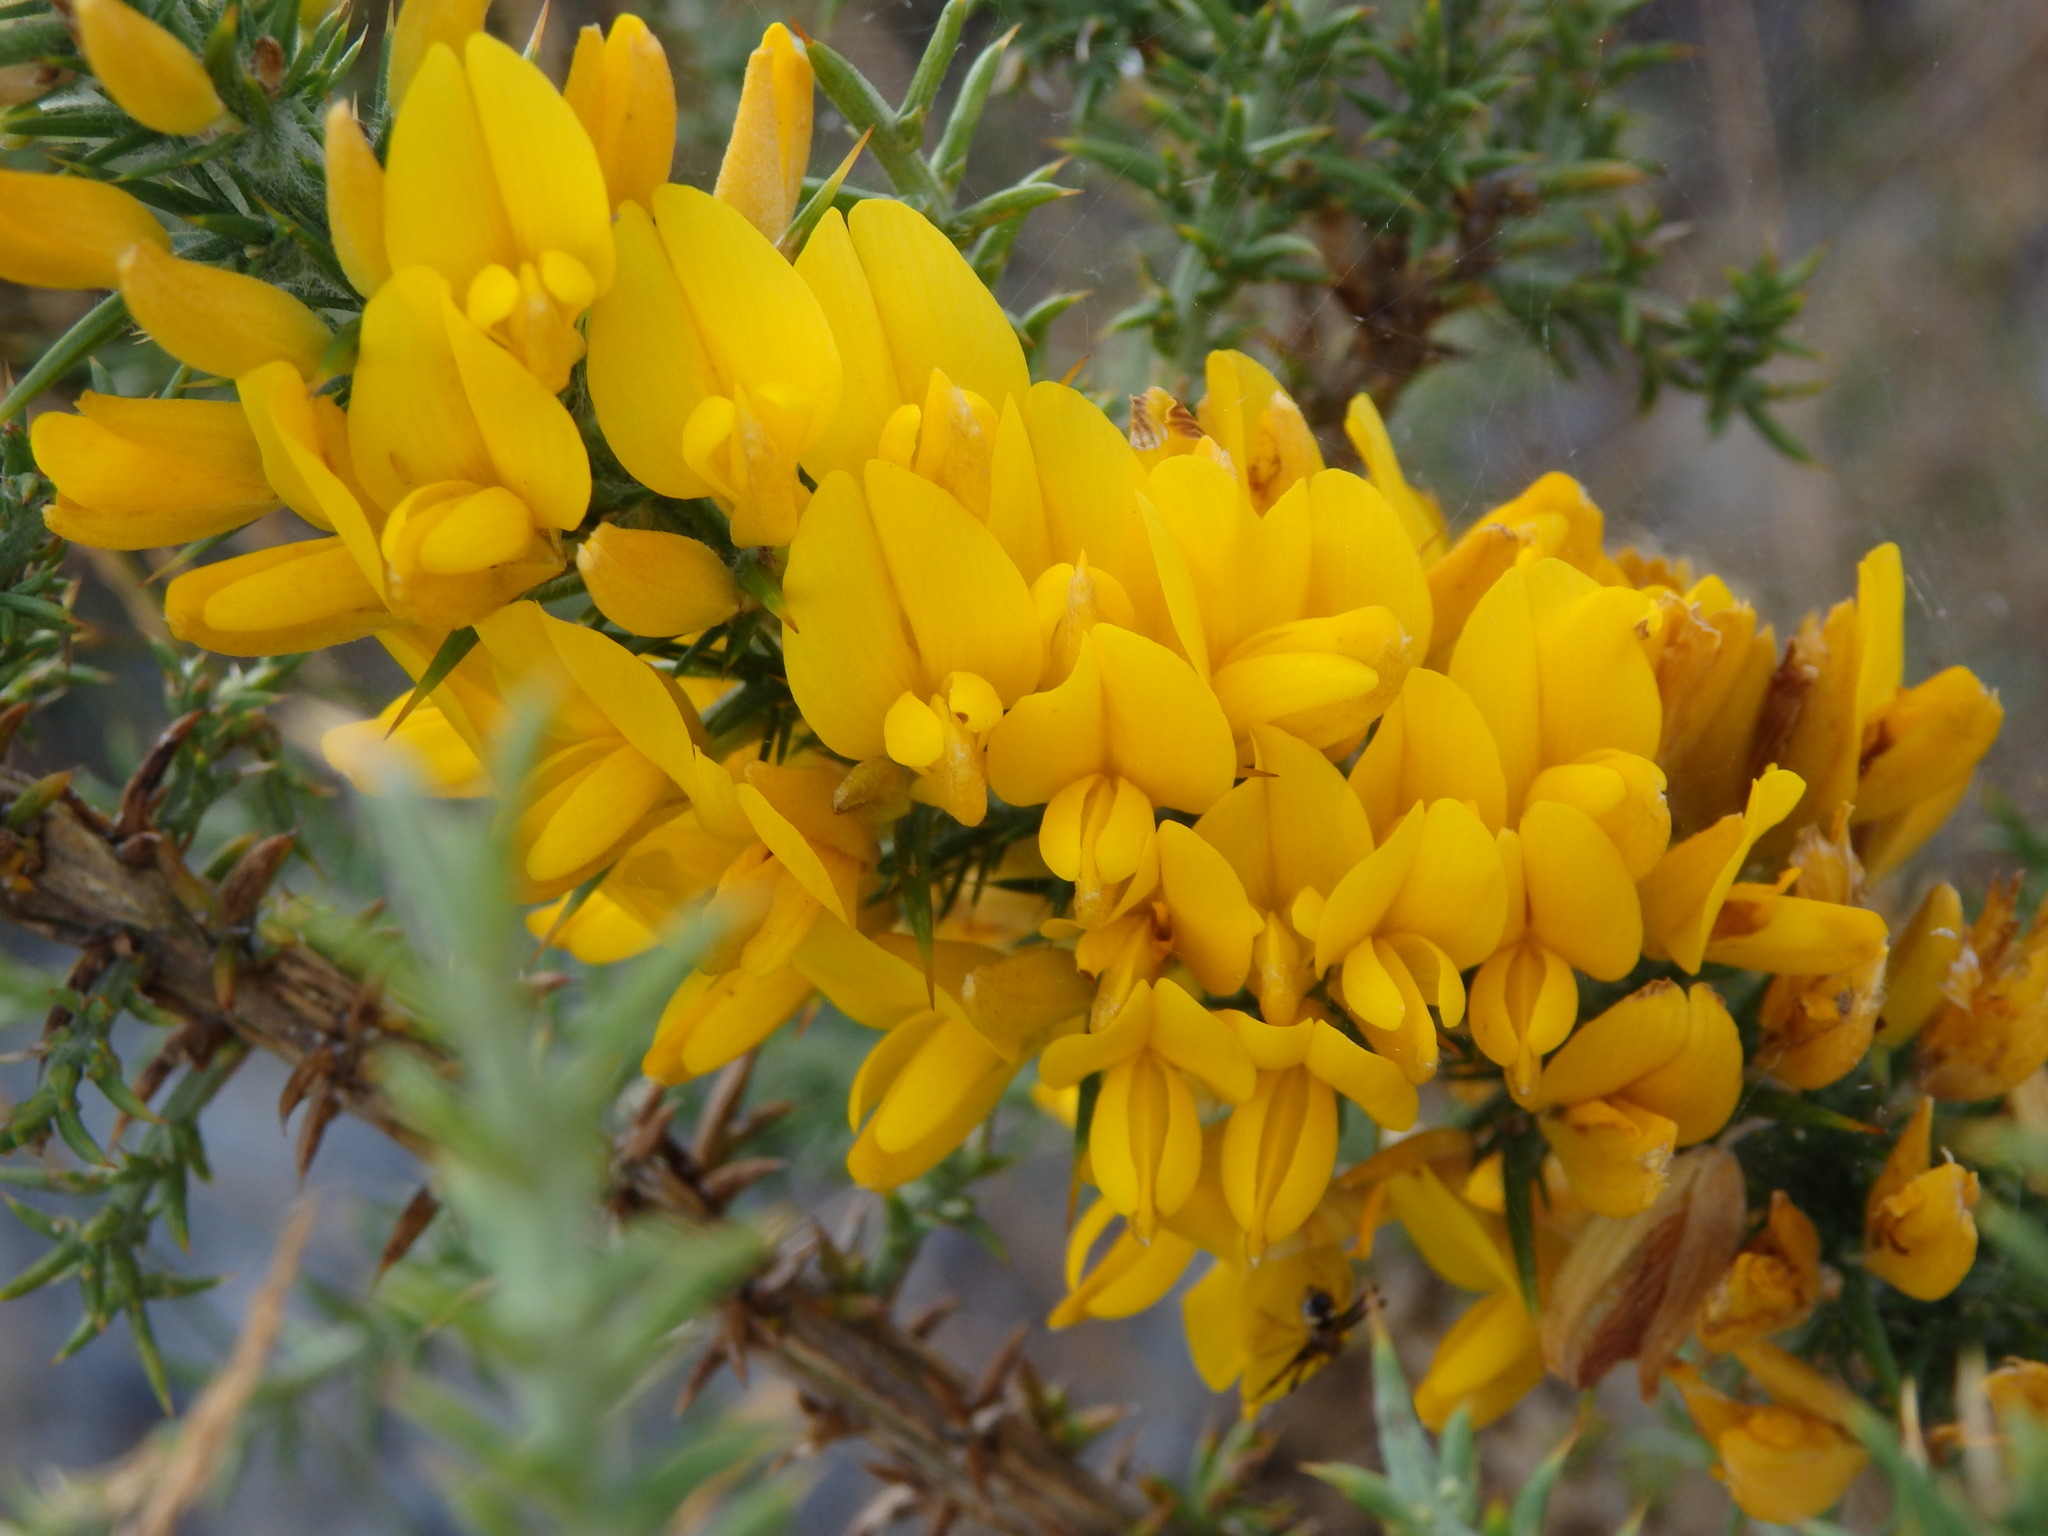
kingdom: Plantae
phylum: Tracheophyta
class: Magnoliopsida
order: Fabales
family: Fabaceae
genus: Ulex
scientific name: Ulex minor
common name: Dwarf gorse
